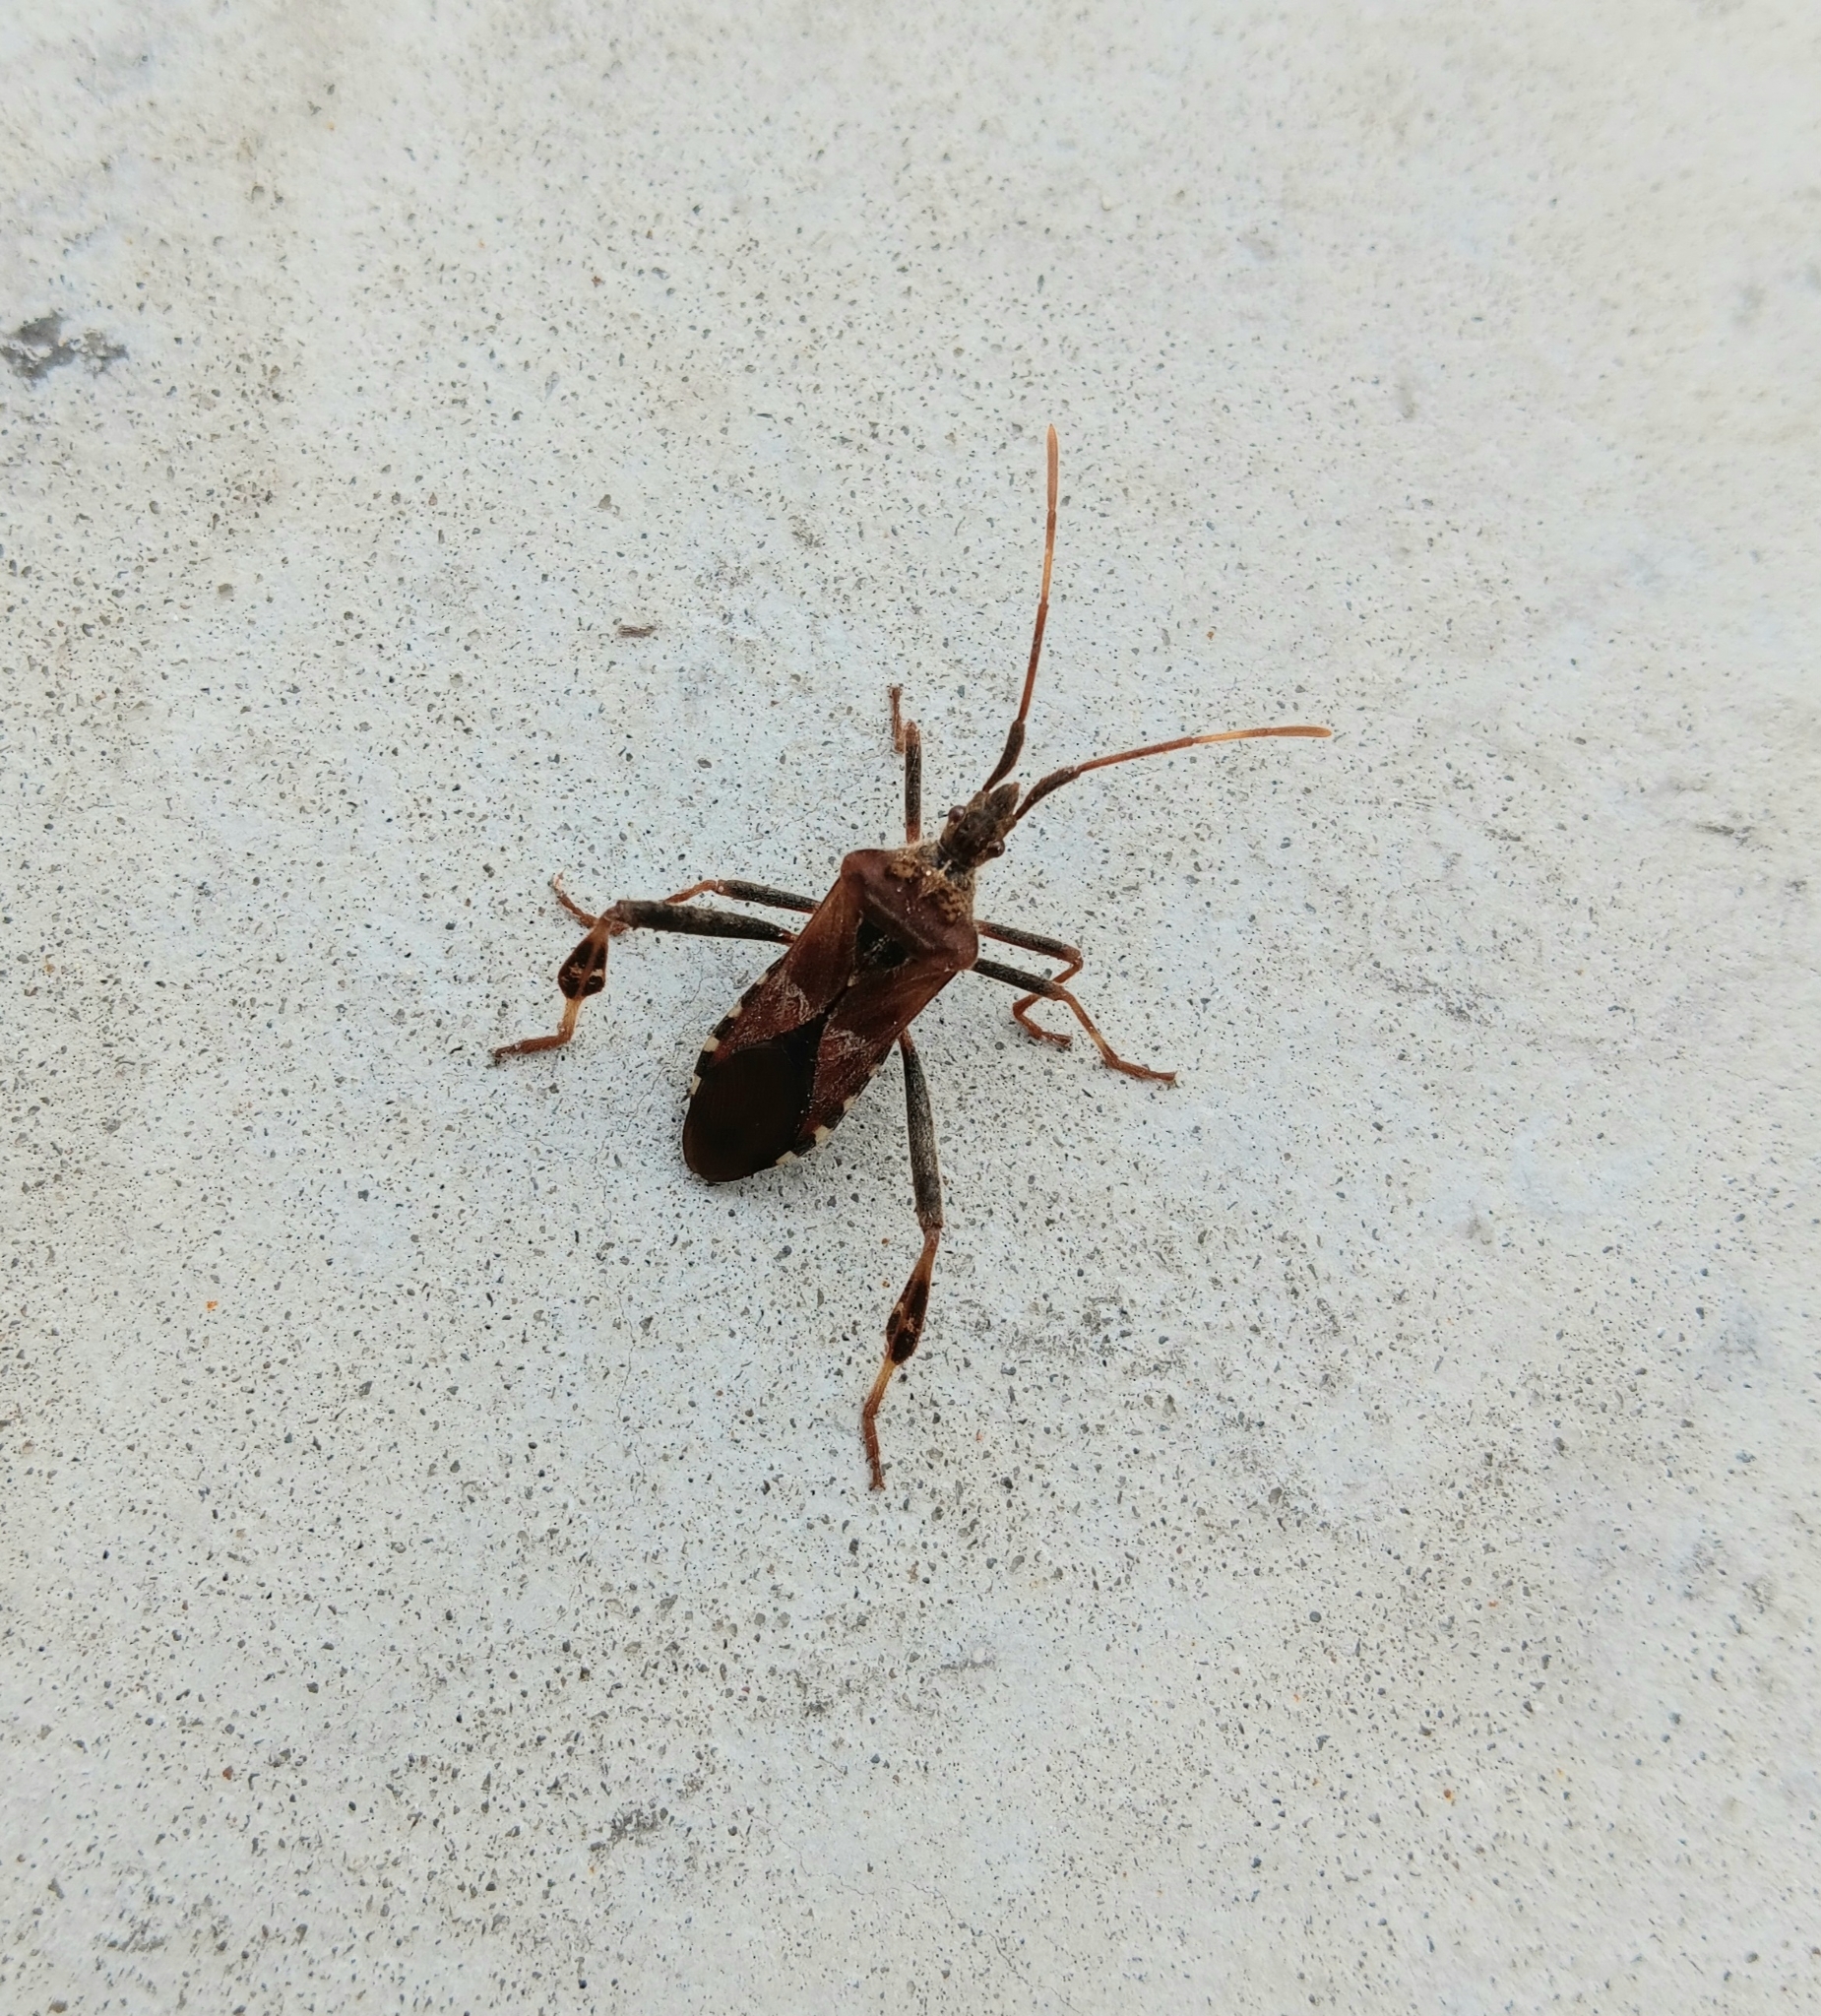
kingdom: Animalia
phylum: Arthropoda
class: Insecta
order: Hemiptera
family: Coreidae
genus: Leptoglossus
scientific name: Leptoglossus occidentalis
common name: Western conifer-seed bug
